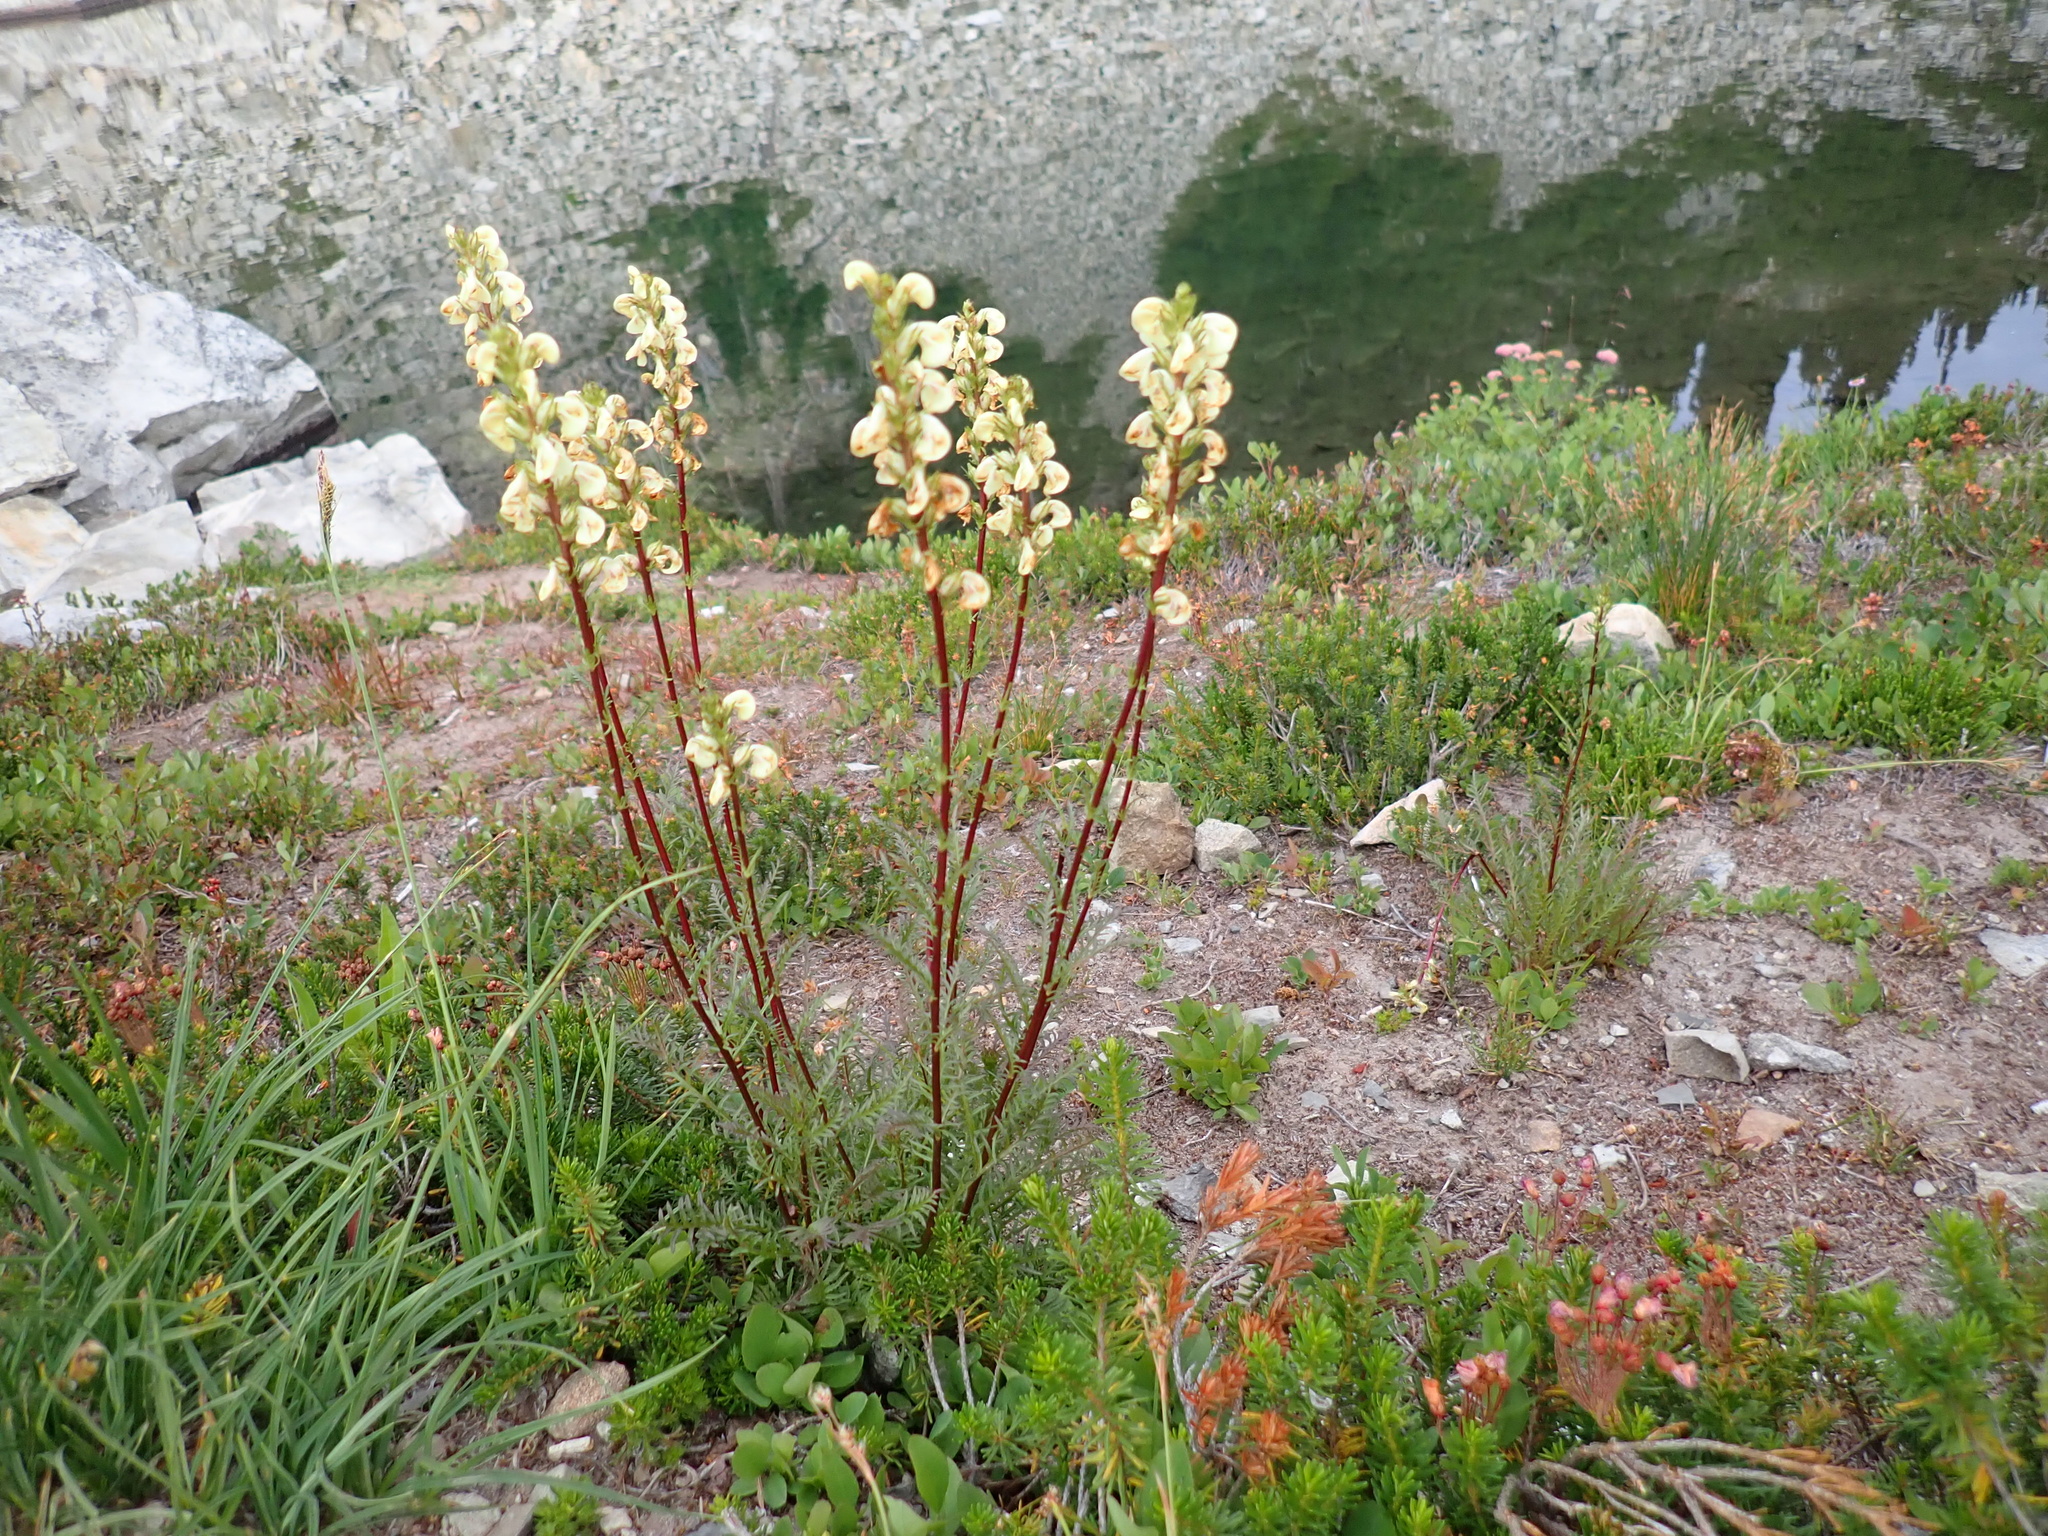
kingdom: Plantae
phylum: Tracheophyta
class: Magnoliopsida
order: Lamiales
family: Orobanchaceae
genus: Pedicularis
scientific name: Pedicularis contorta
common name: Coiled lousewort
